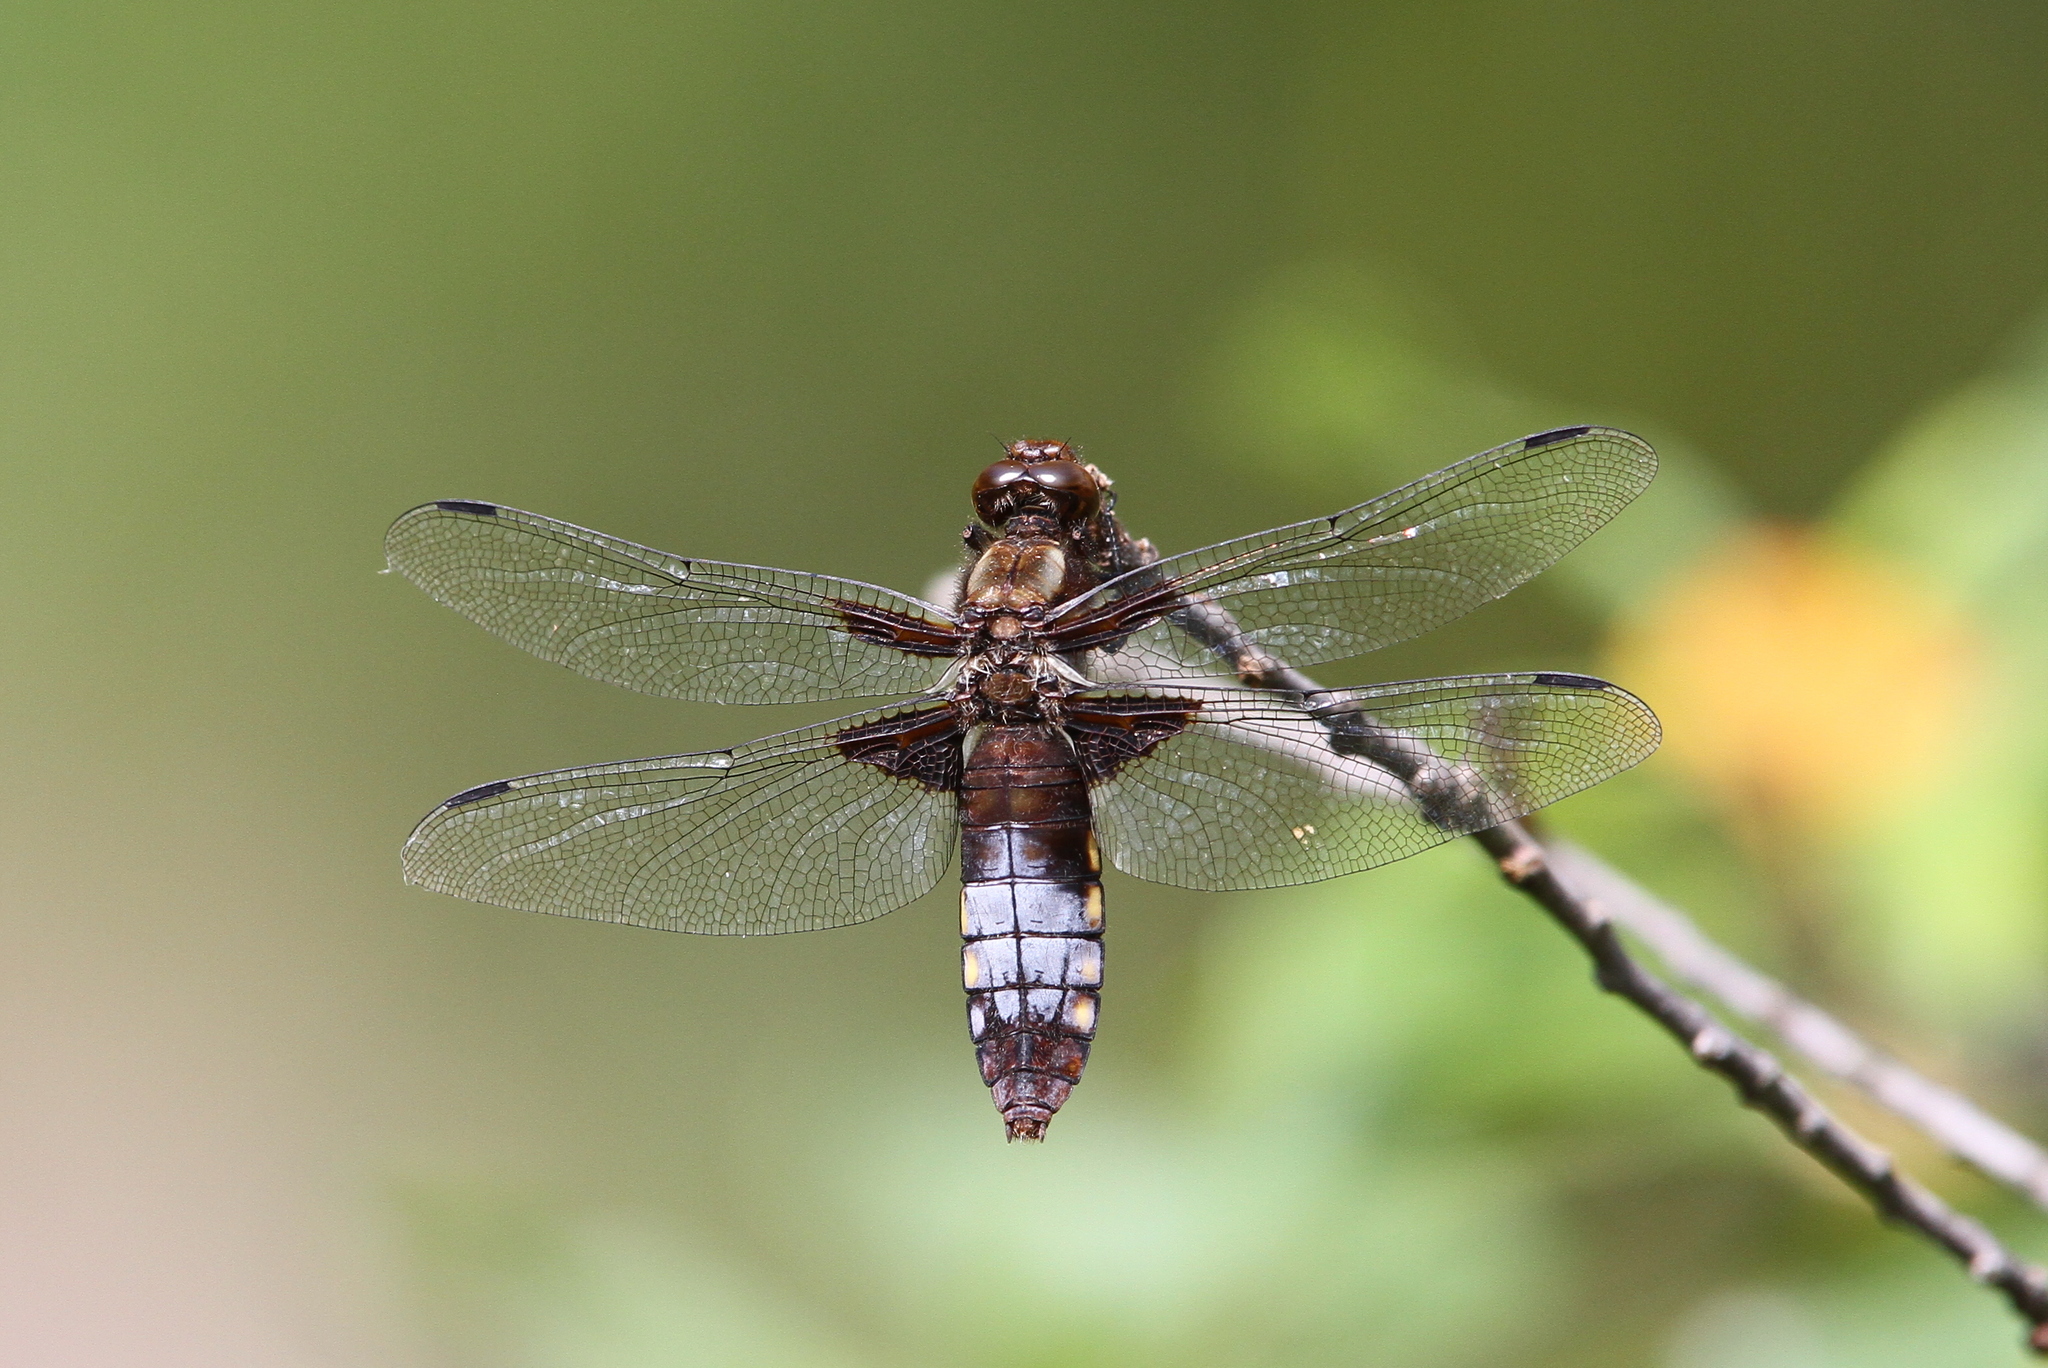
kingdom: Animalia
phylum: Arthropoda
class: Insecta
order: Odonata
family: Libellulidae
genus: Libellula
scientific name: Libellula depressa
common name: Broad-bodied chaser
